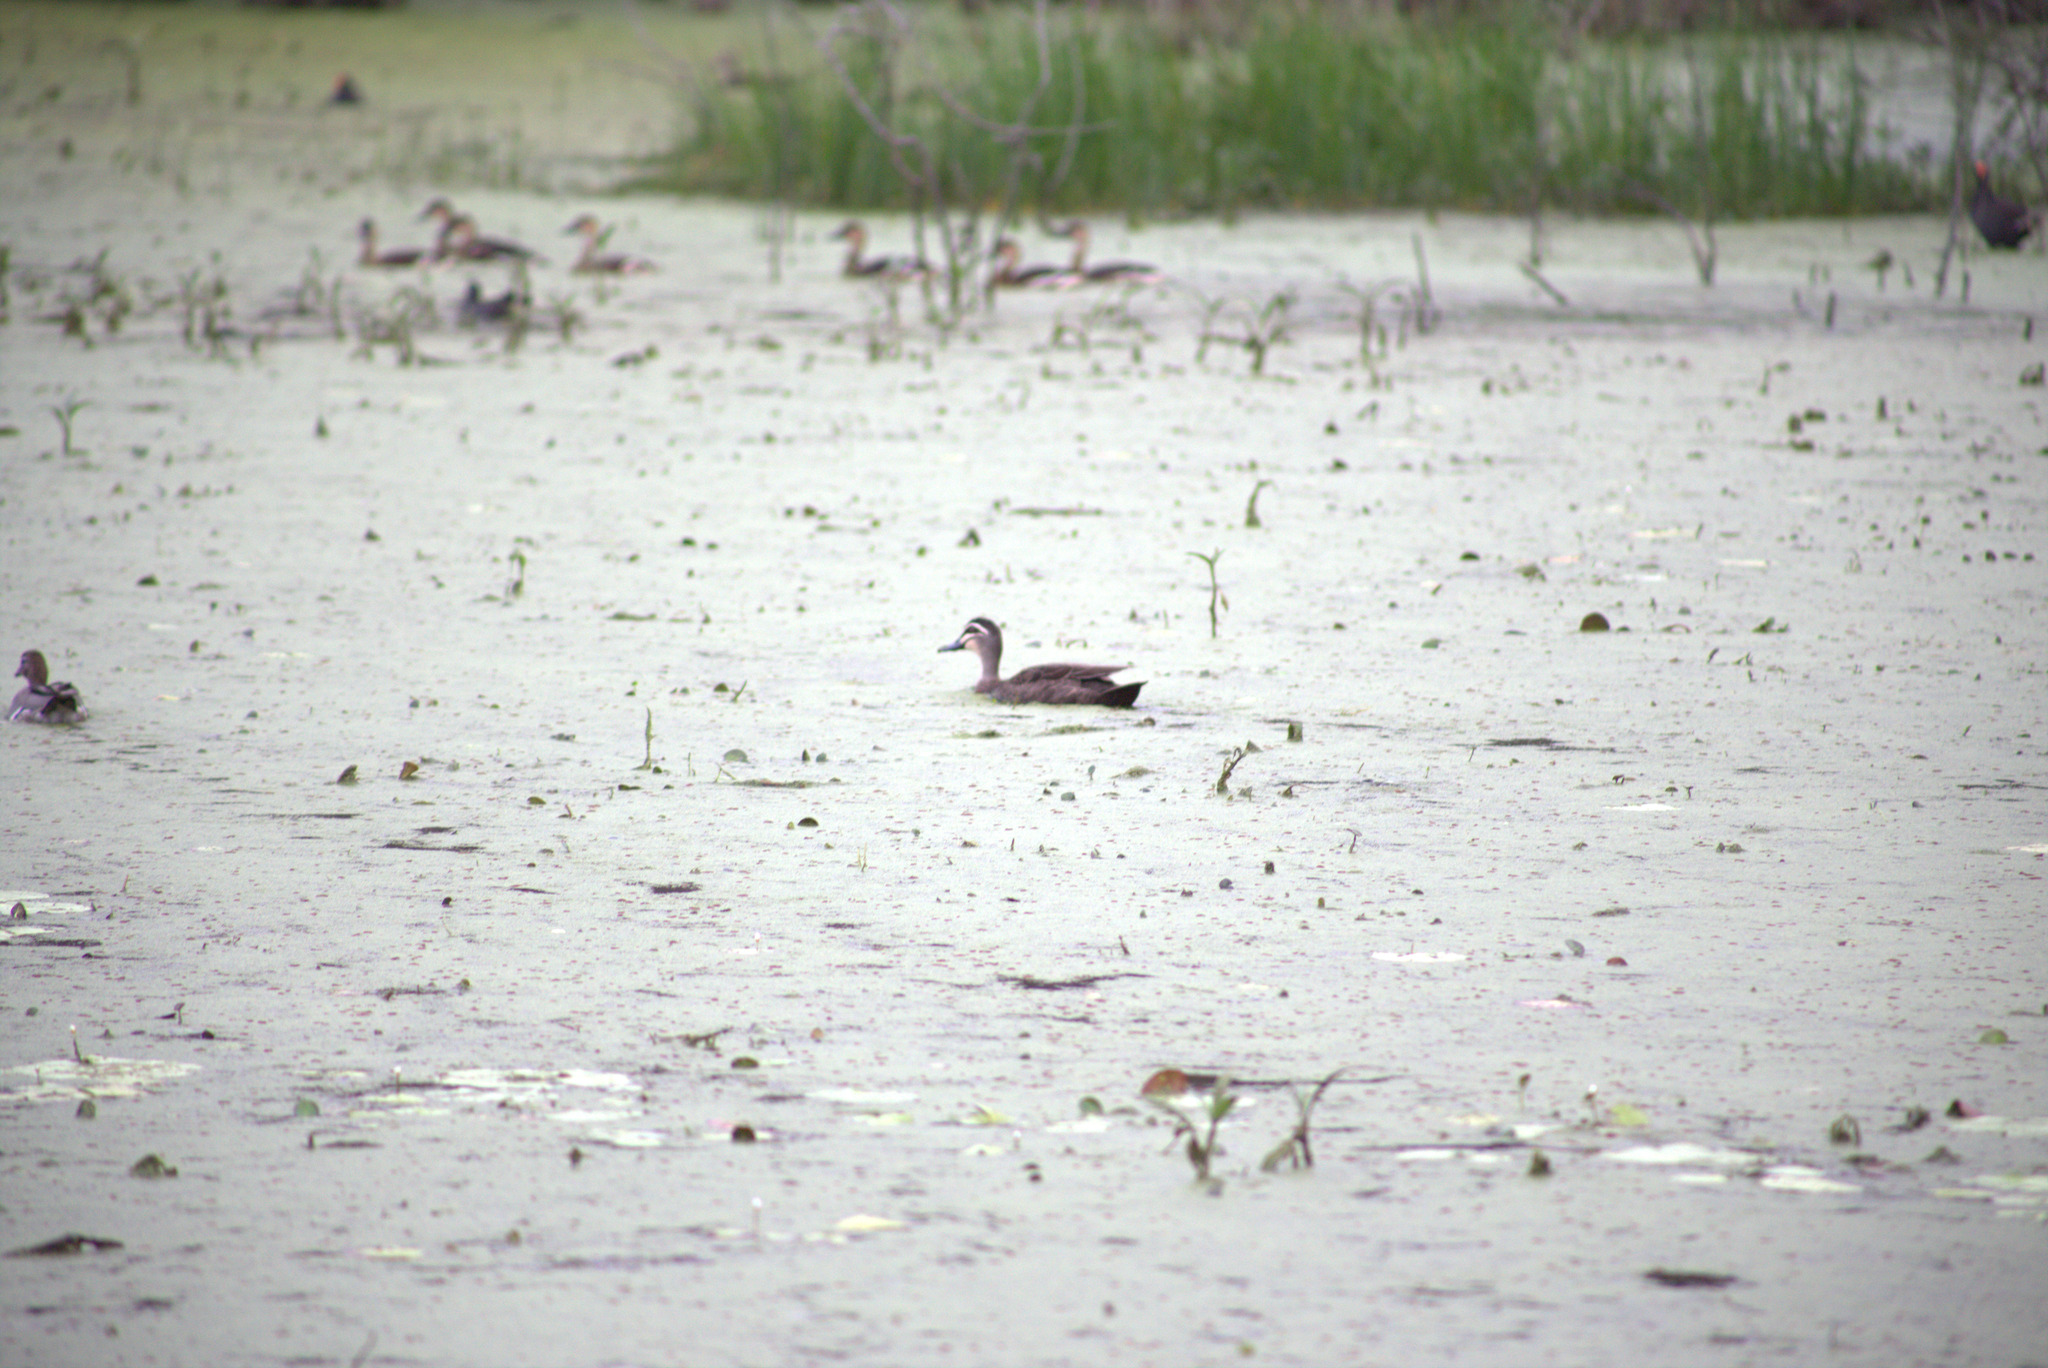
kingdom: Animalia
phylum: Chordata
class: Aves
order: Anseriformes
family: Anatidae
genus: Anas
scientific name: Anas superciliosa
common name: Pacific black duck
